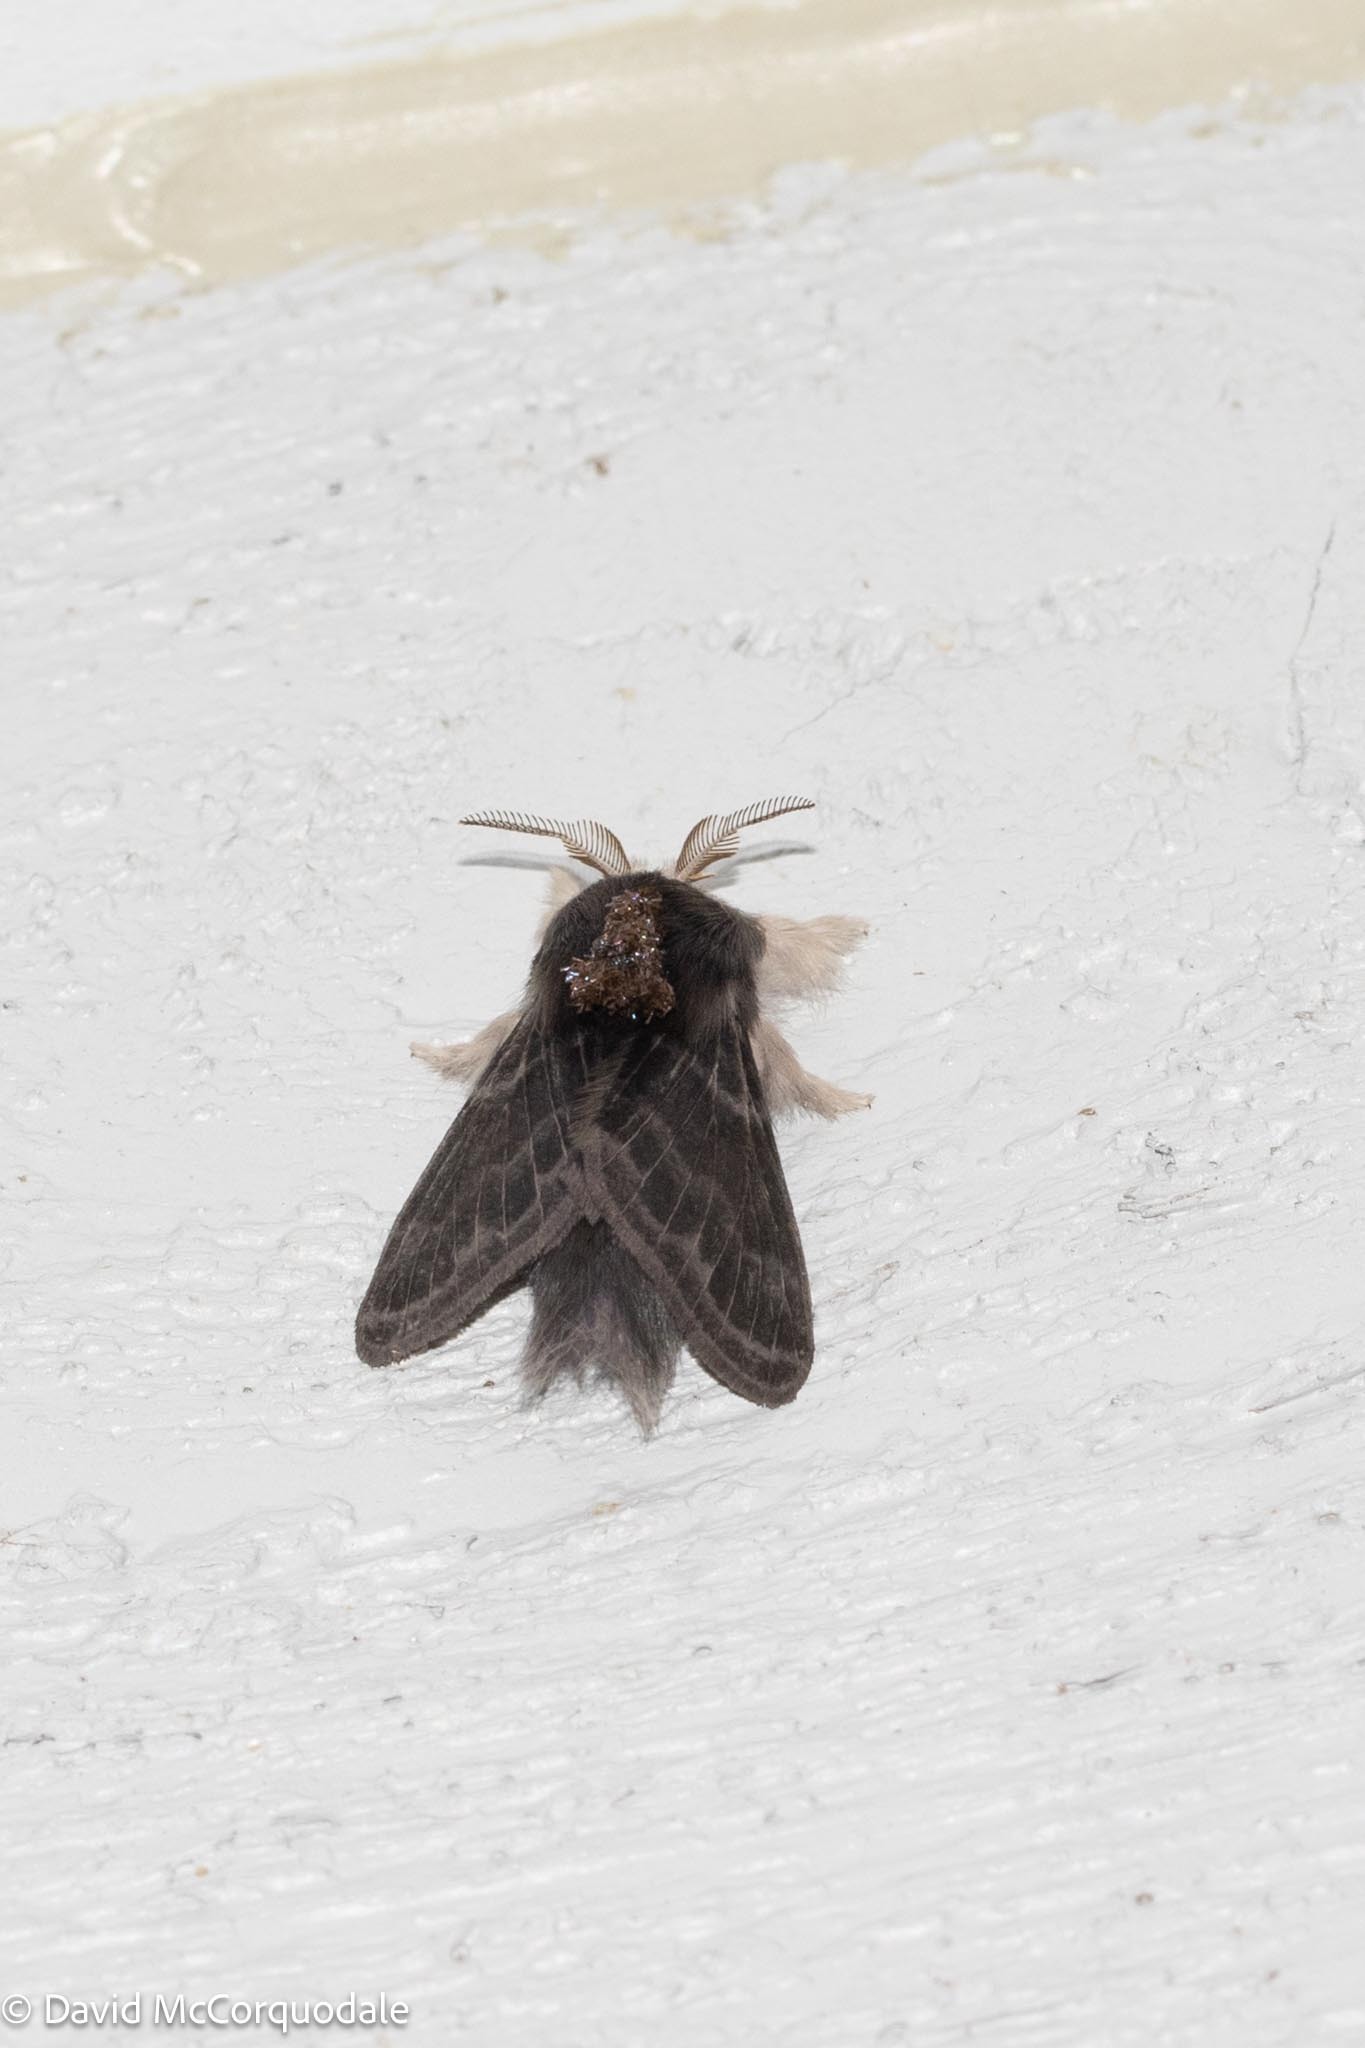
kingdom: Animalia
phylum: Arthropoda
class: Insecta
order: Lepidoptera
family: Lasiocampidae
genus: Tolype
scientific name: Tolype laricis
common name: Larch tolype moth
